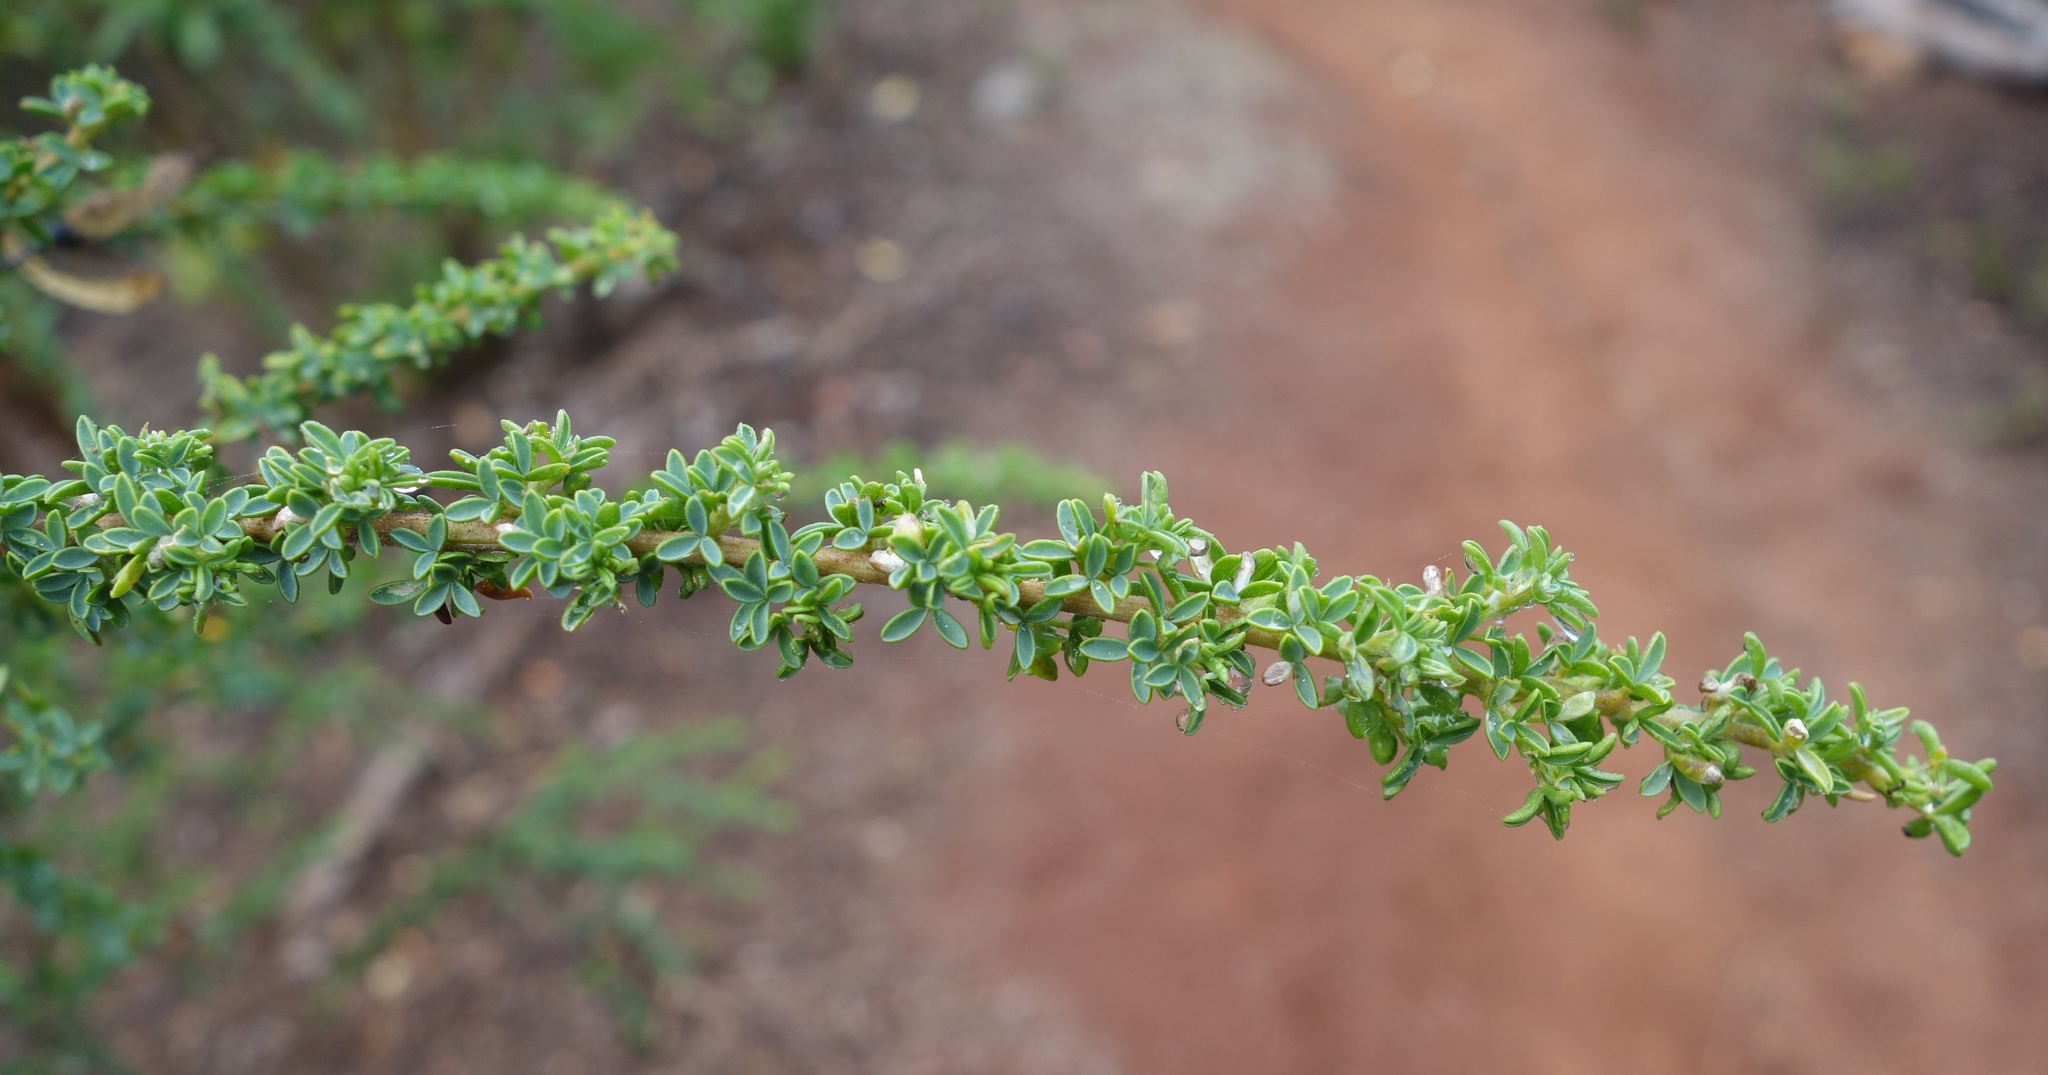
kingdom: Plantae
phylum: Tracheophyta
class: Magnoliopsida
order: Fabales
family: Fabaceae
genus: Adenocarpus
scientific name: Adenocarpus foliolosus
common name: Canary island flatpod
